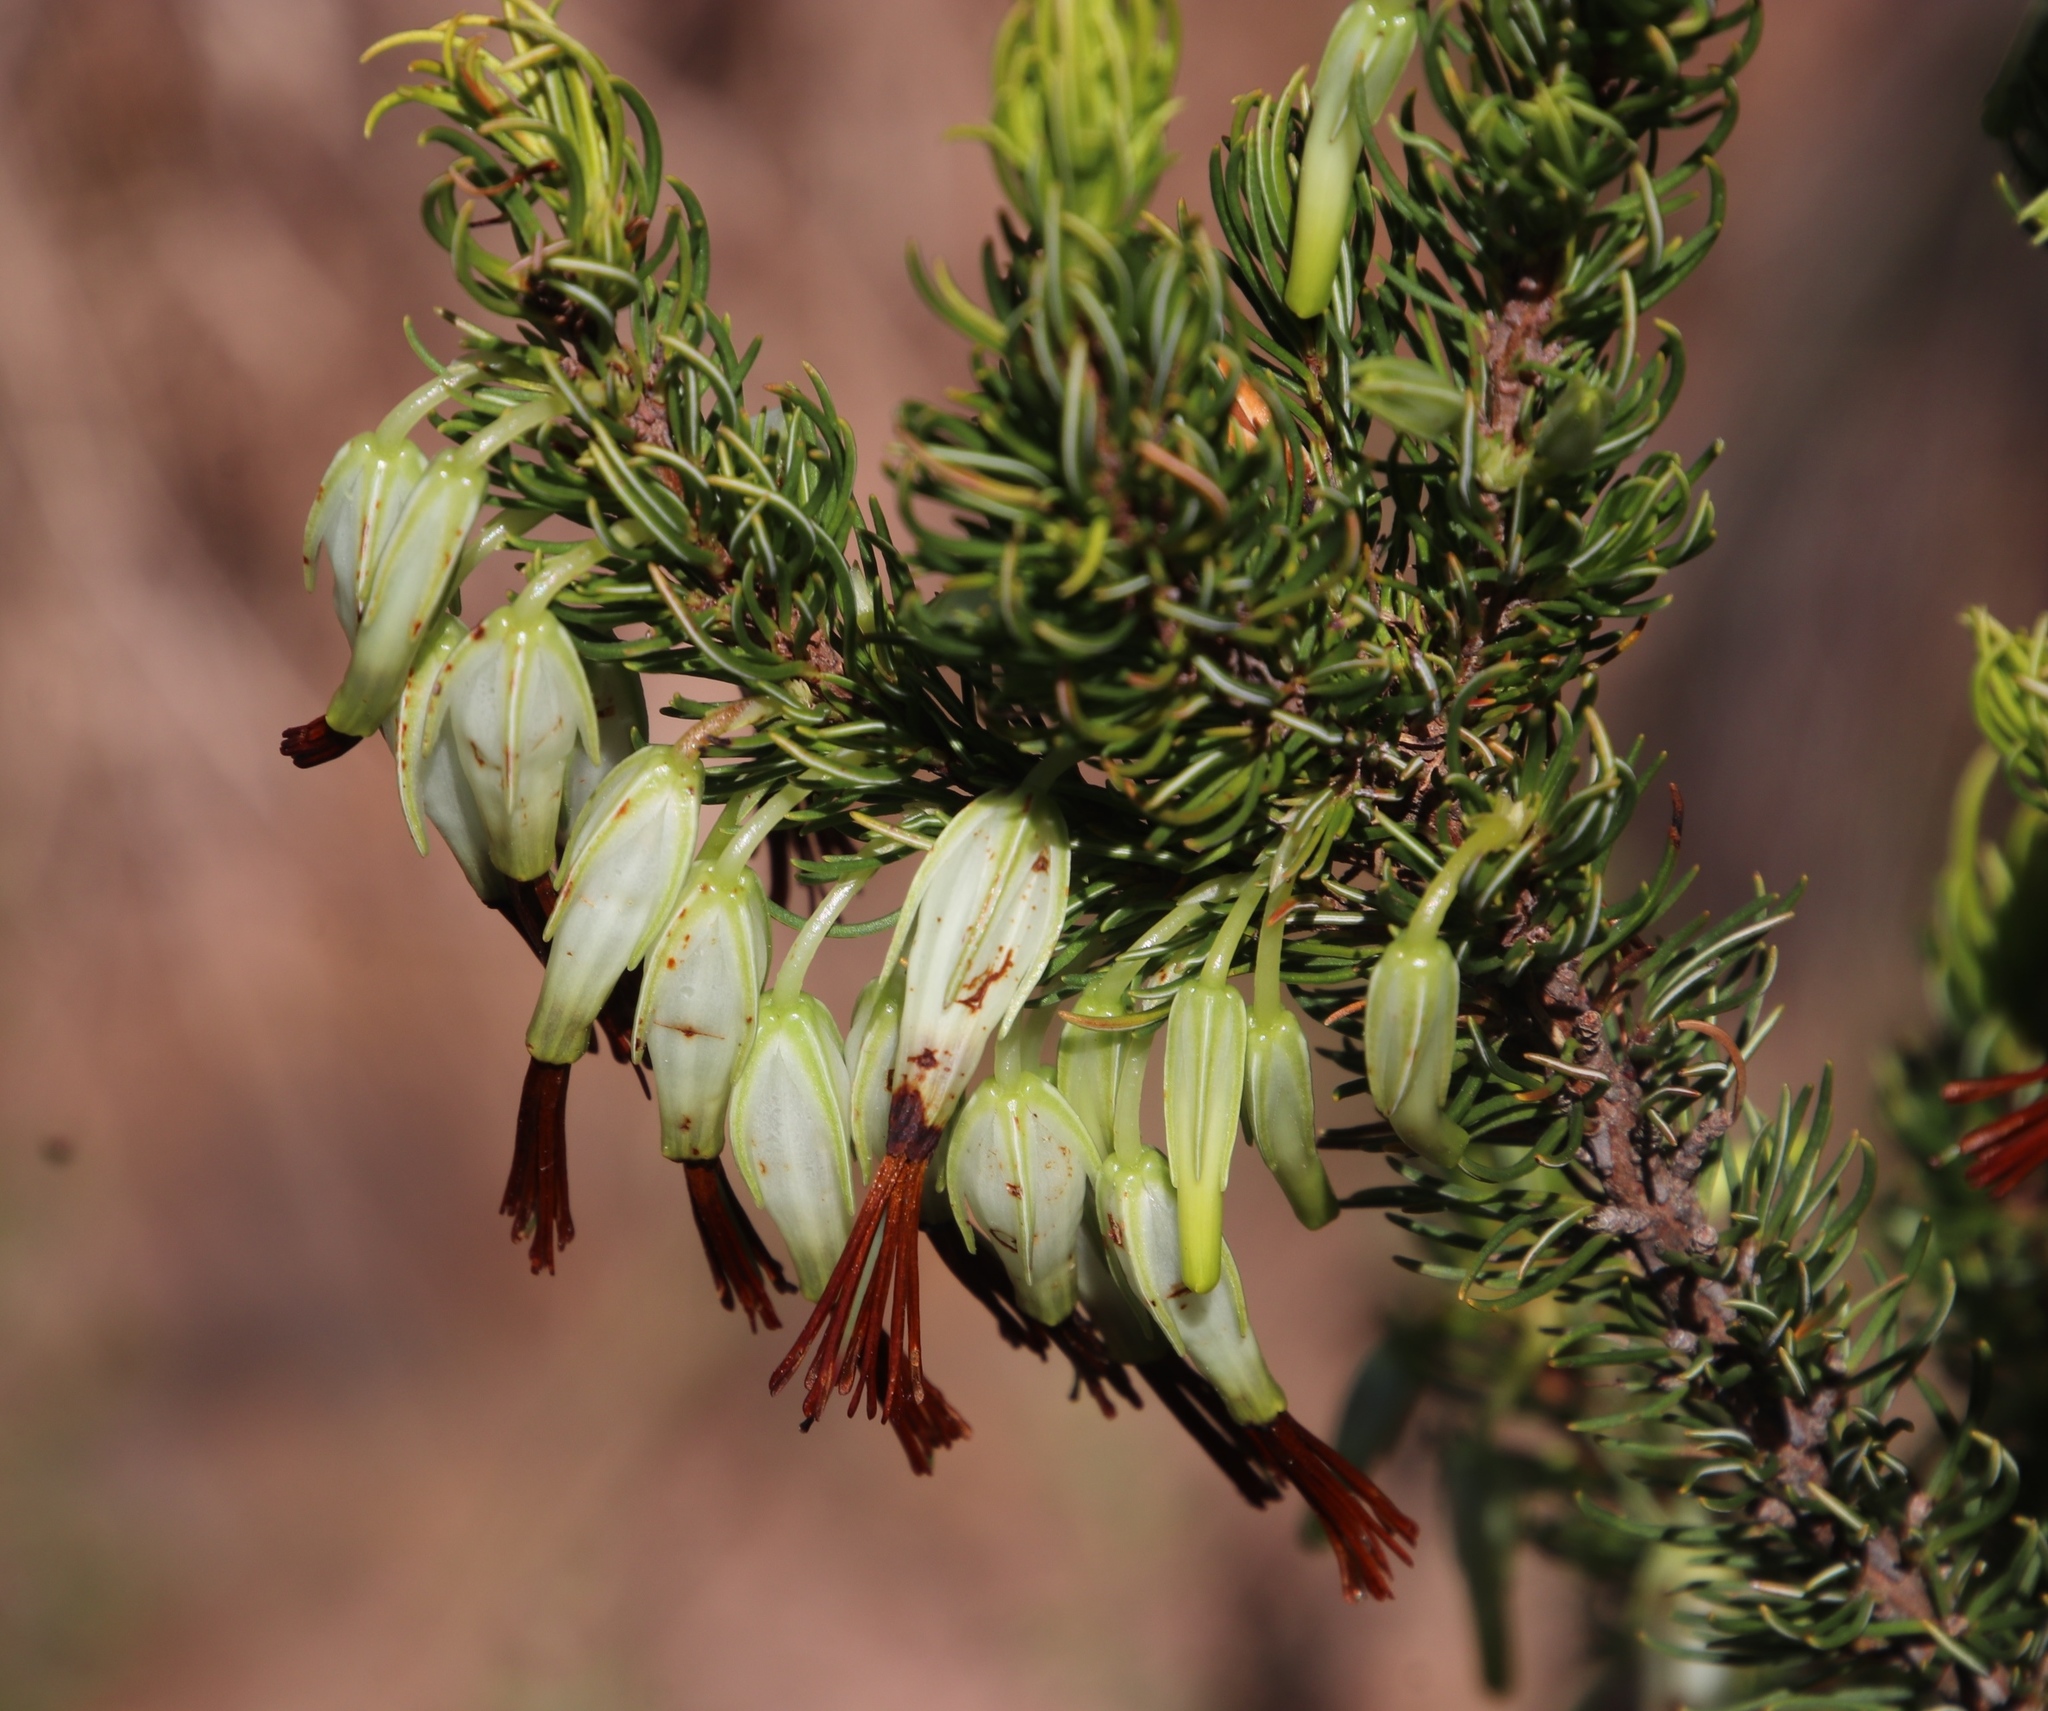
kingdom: Plantae
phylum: Tracheophyta
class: Magnoliopsida
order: Ericales
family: Ericaceae
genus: Erica
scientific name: Erica plukenetii
